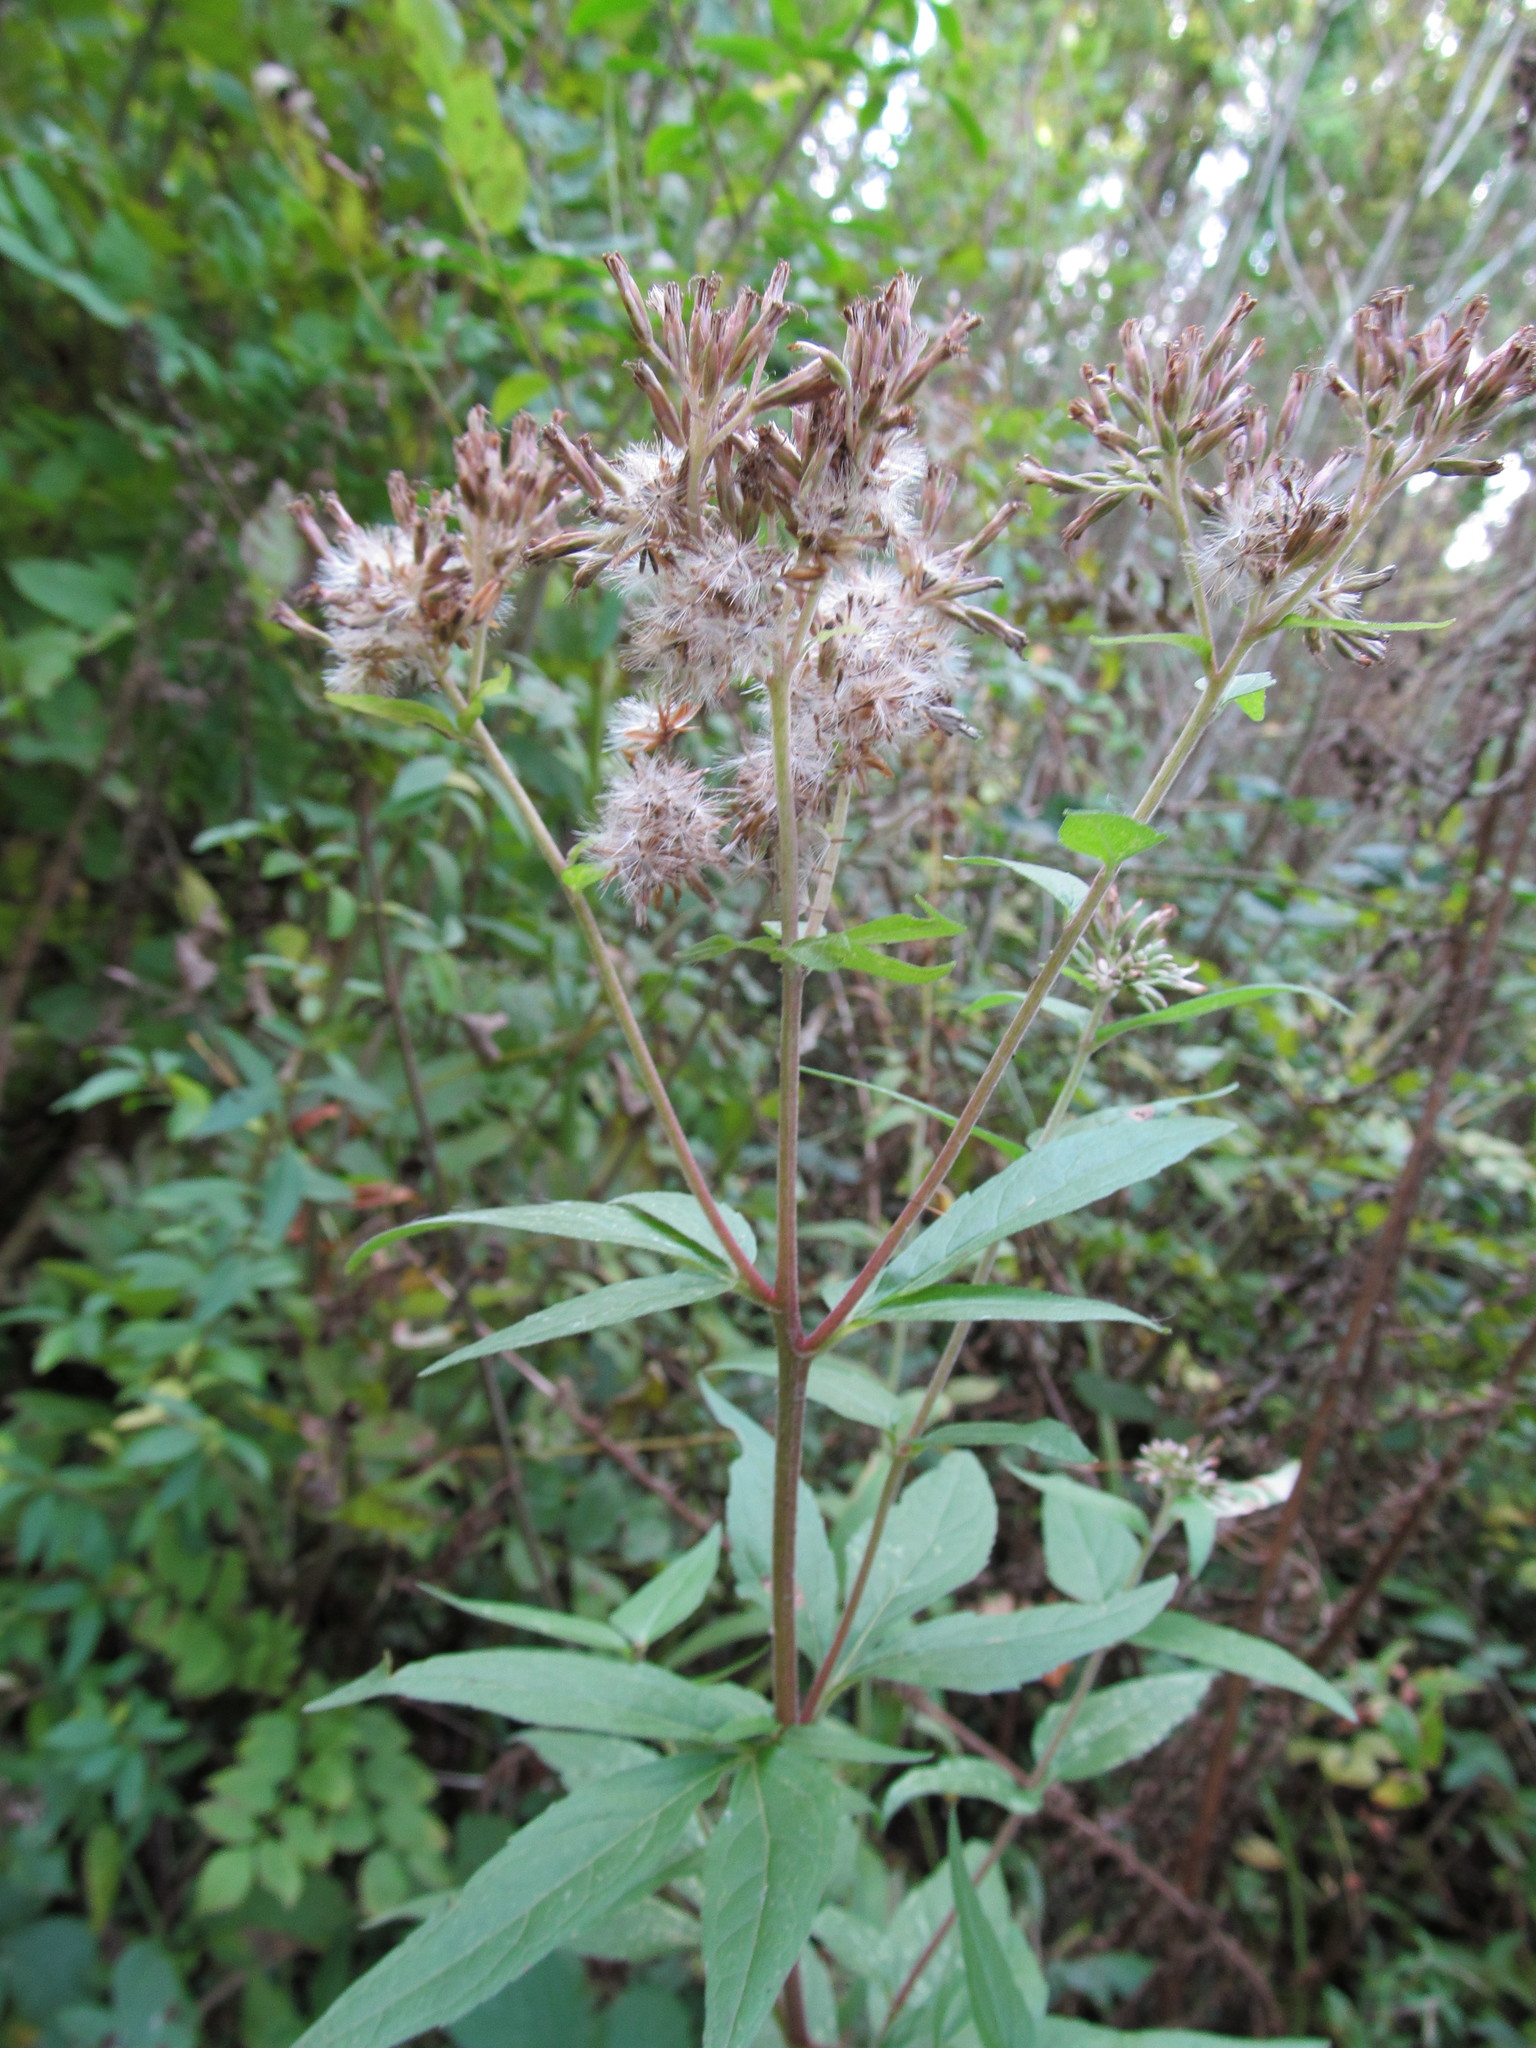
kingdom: Plantae
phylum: Tracheophyta
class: Magnoliopsida
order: Asterales
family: Asteraceae
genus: Eupatorium
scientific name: Eupatorium cannabinum
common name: Hemp-agrimony
